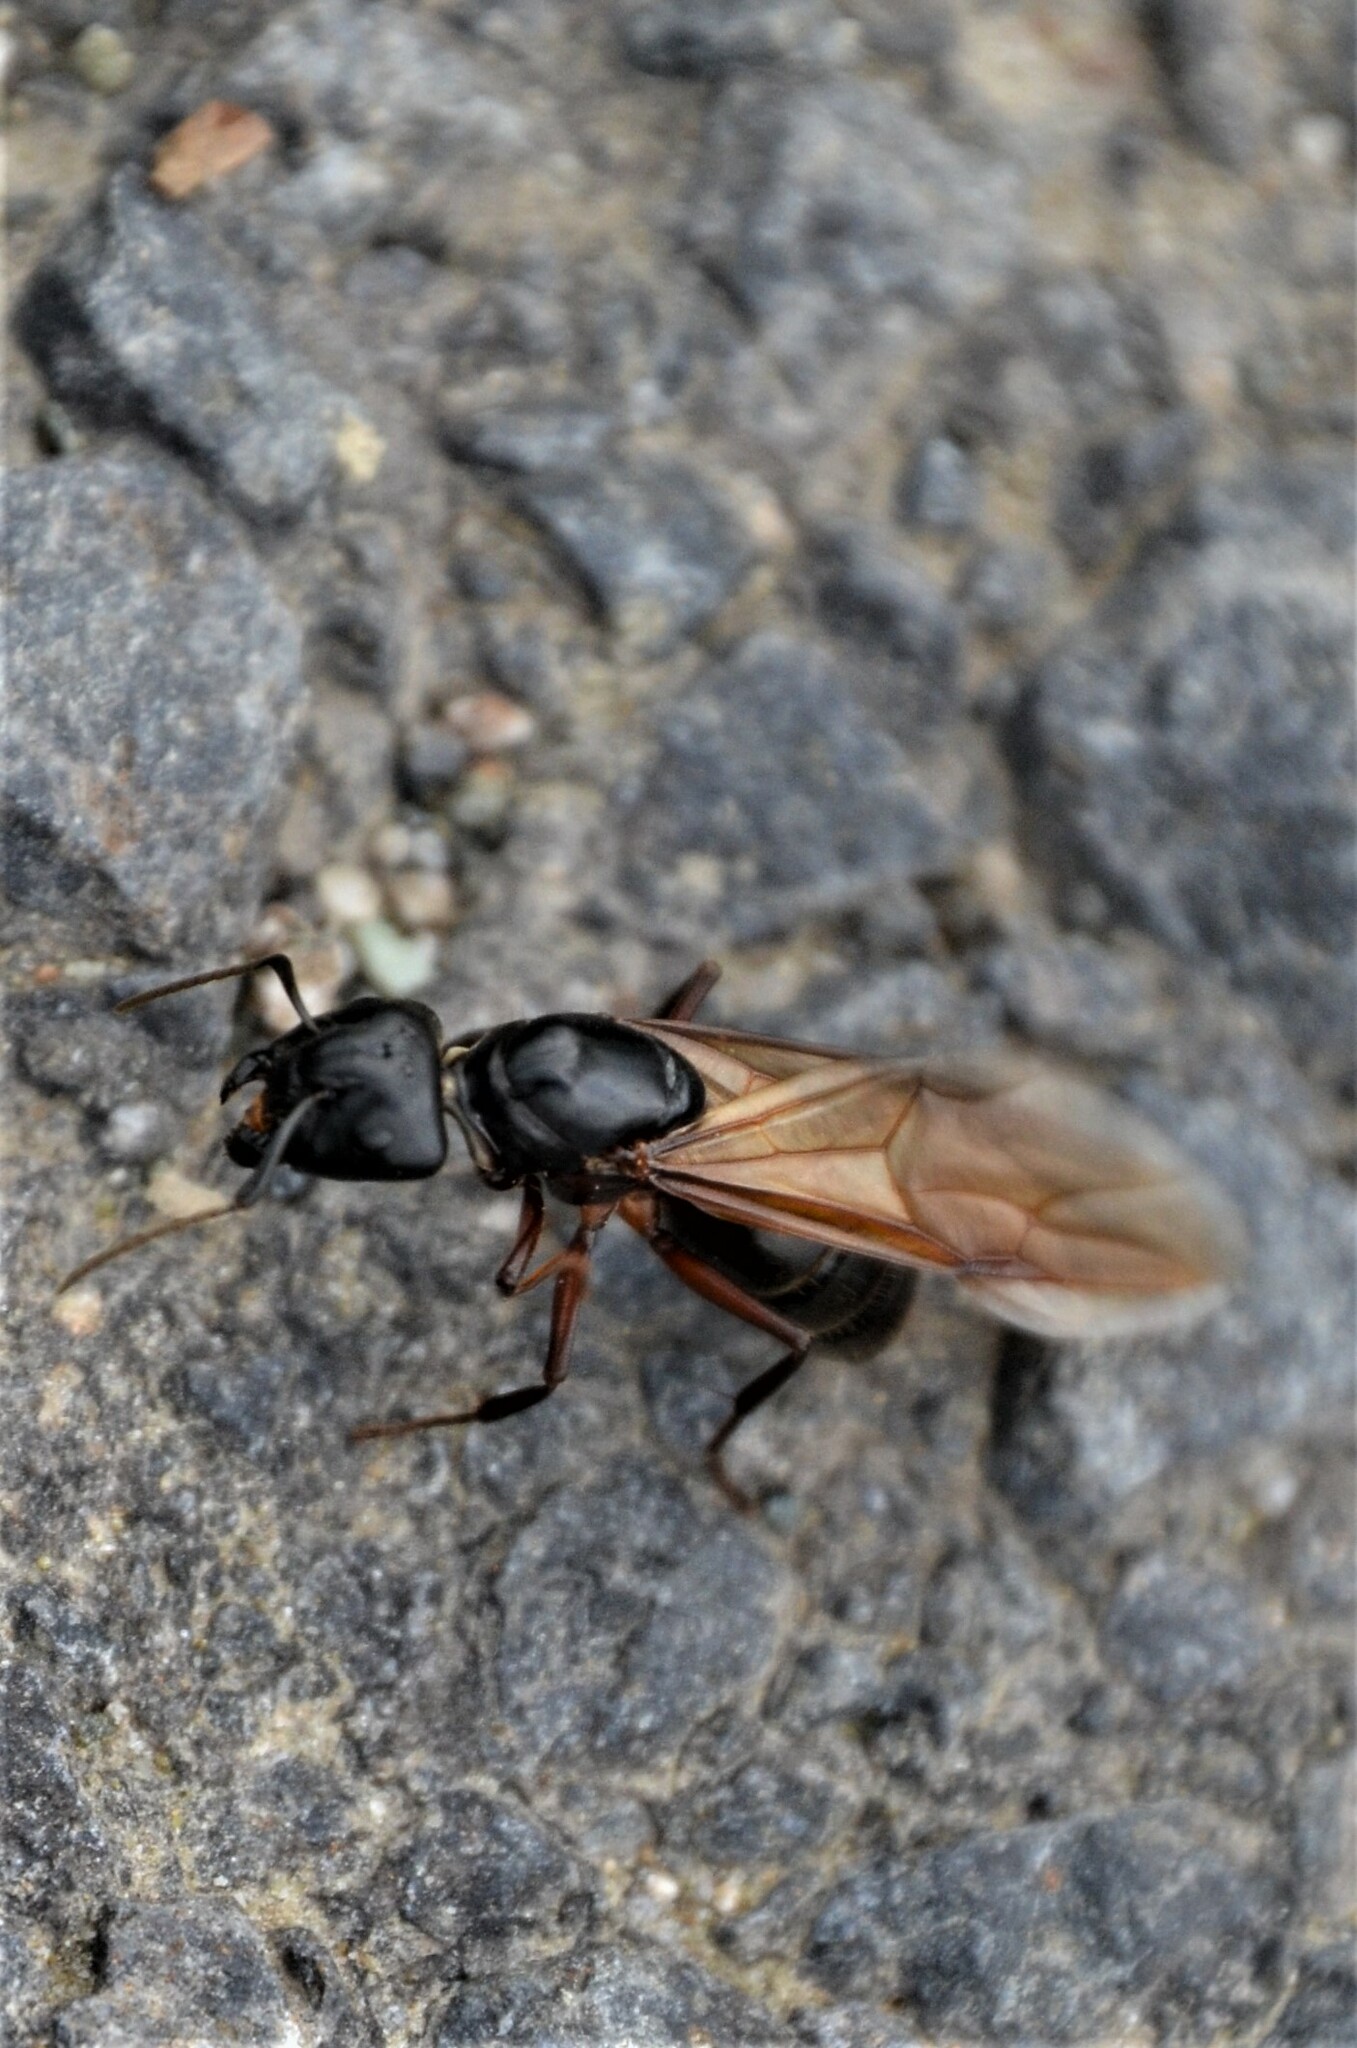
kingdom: Animalia
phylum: Arthropoda
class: Insecta
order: Hymenoptera
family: Formicidae
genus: Camponotus
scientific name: Camponotus herculeanus
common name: Hercules ant
